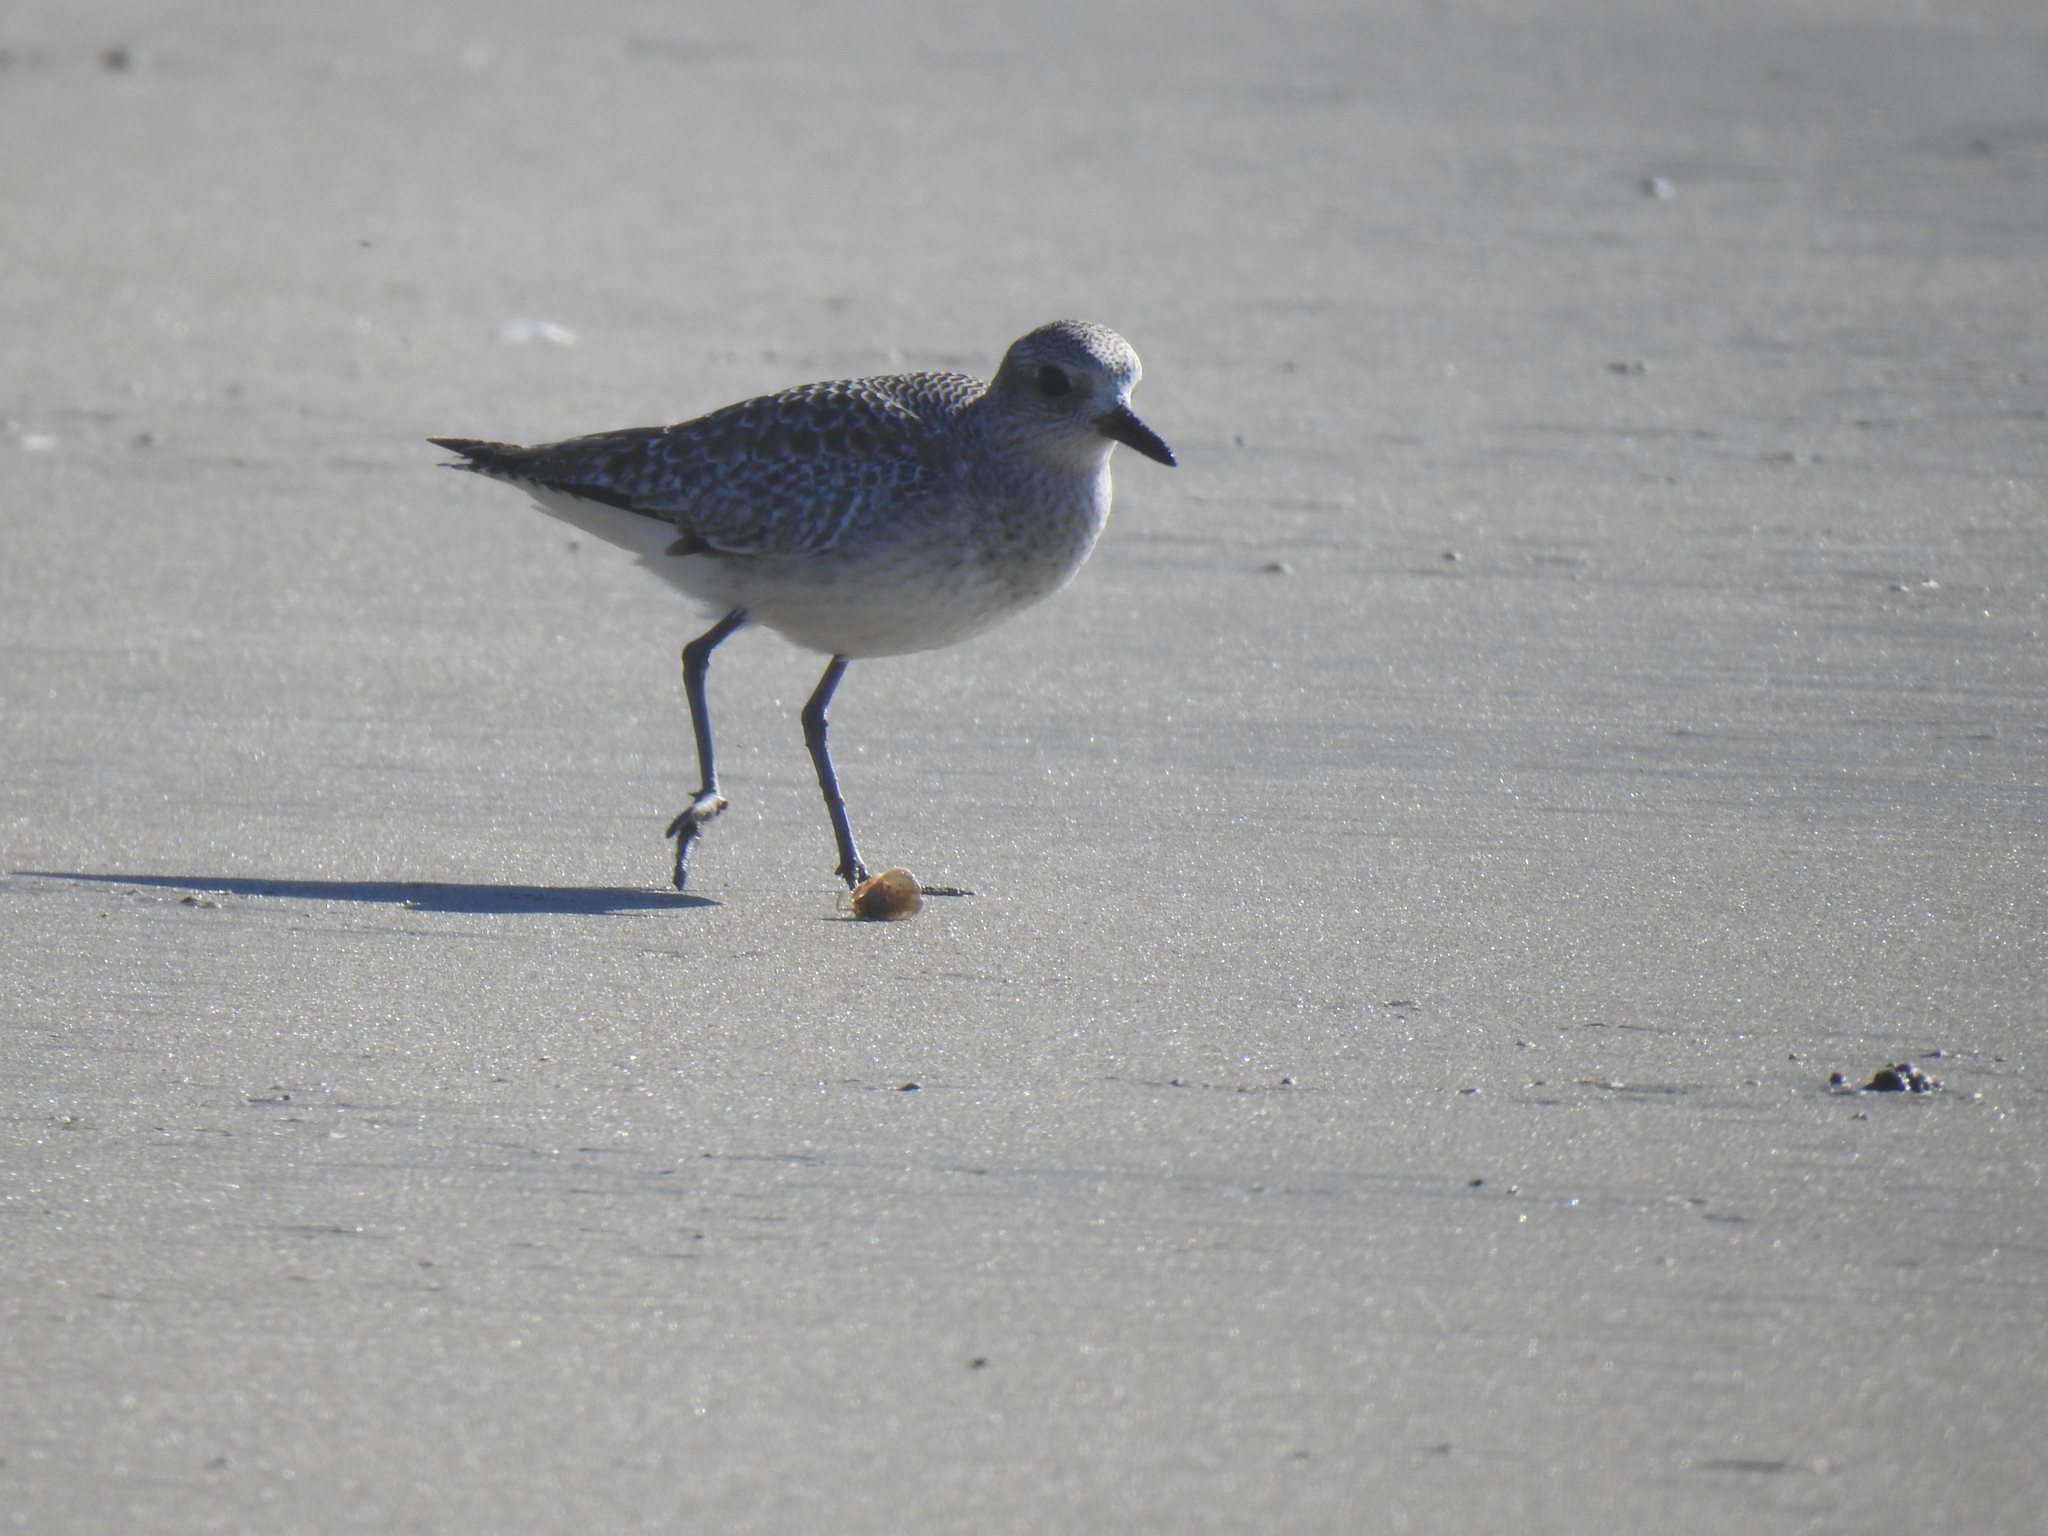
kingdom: Animalia
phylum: Chordata
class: Aves
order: Charadriiformes
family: Charadriidae
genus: Pluvialis
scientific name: Pluvialis squatarola
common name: Grey plover
